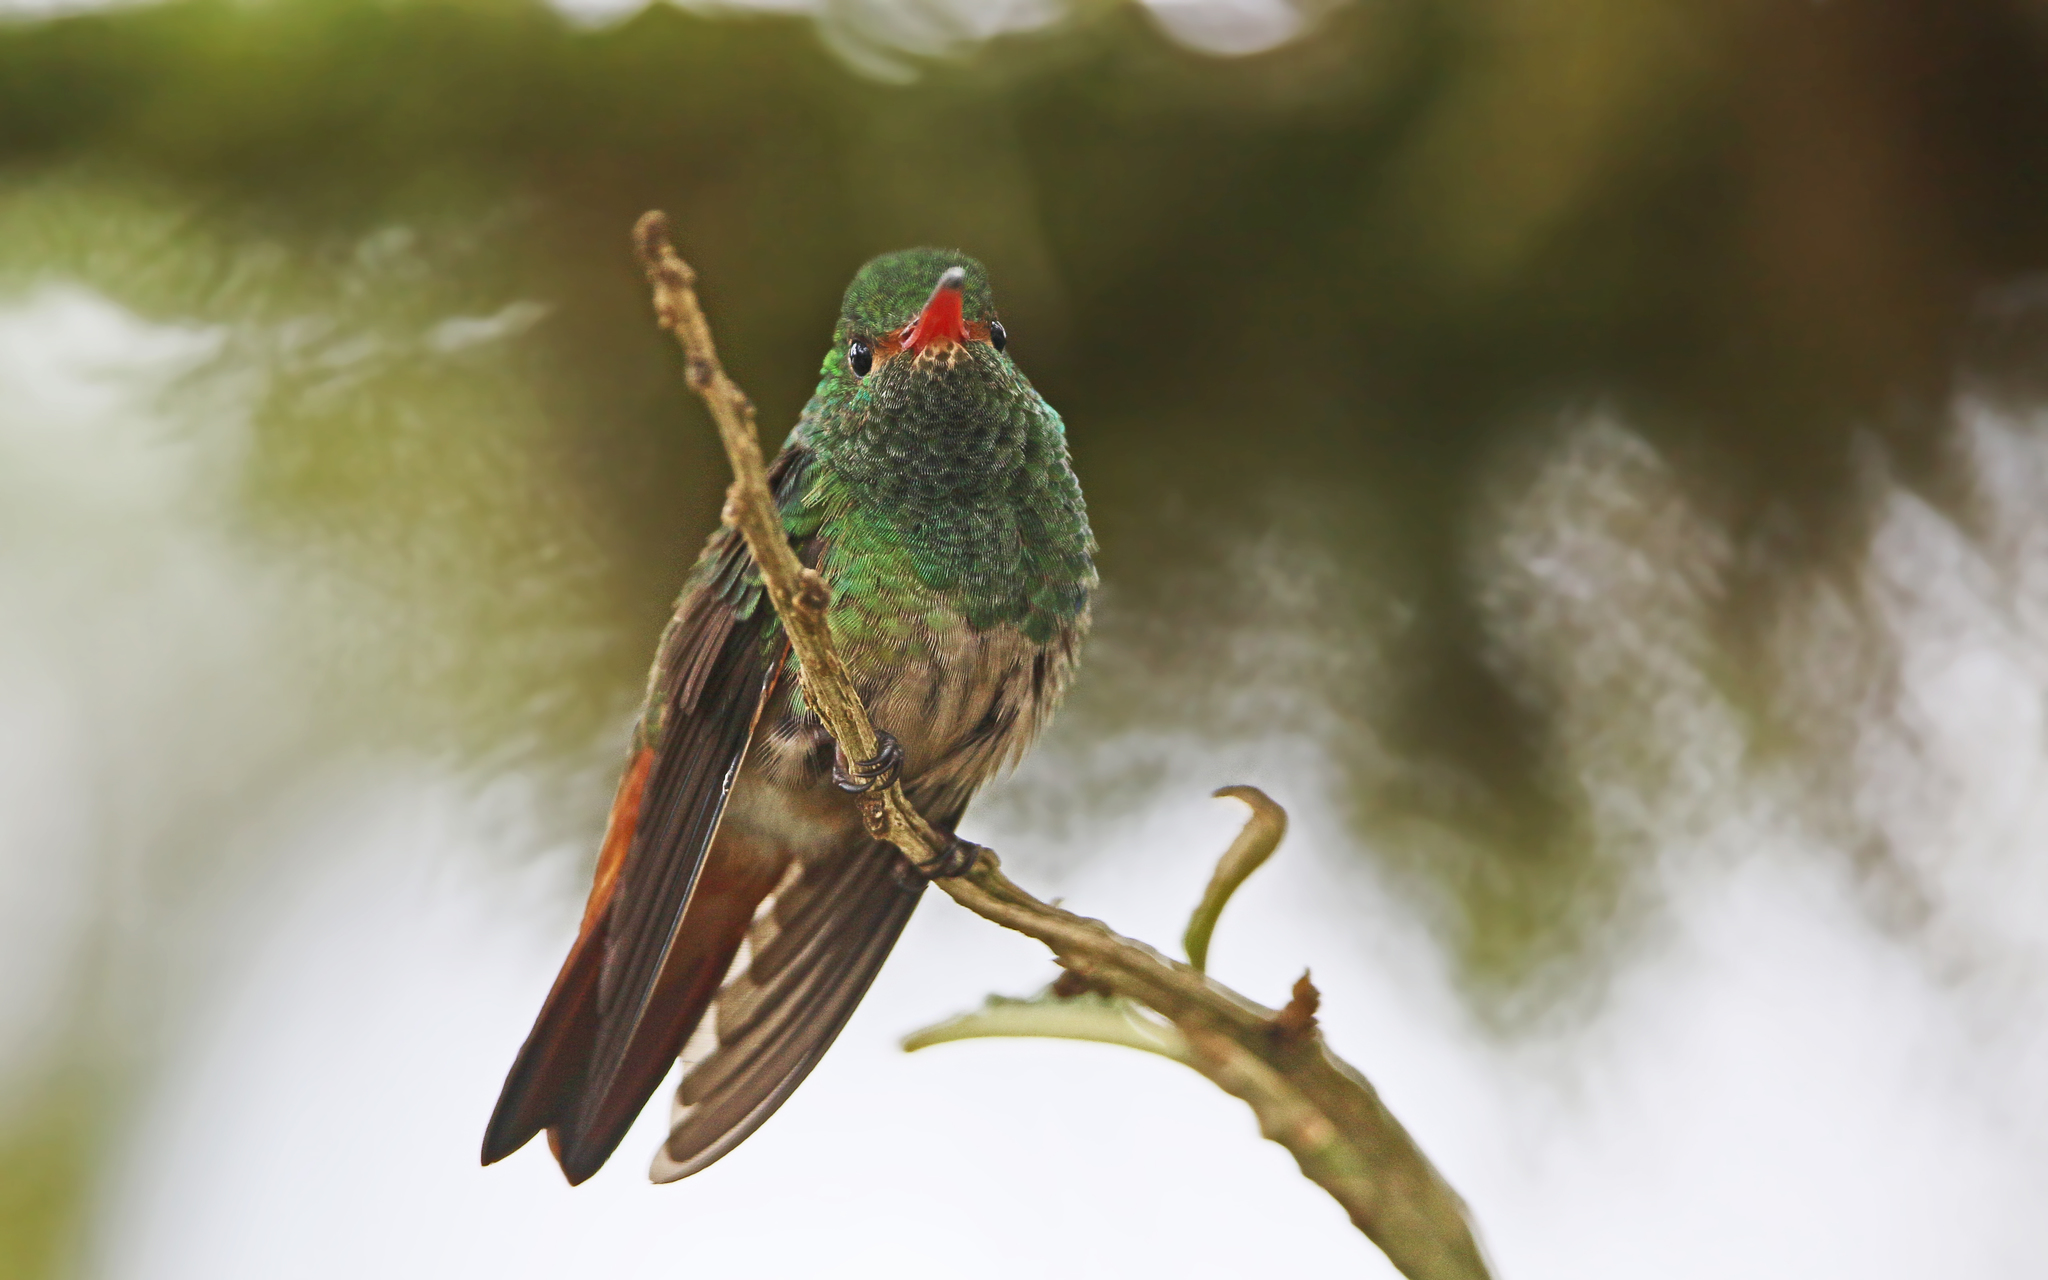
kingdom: Animalia
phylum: Chordata
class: Aves
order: Apodiformes
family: Trochilidae
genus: Amazilia
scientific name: Amazilia tzacatl
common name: Rufous-tailed hummingbird
